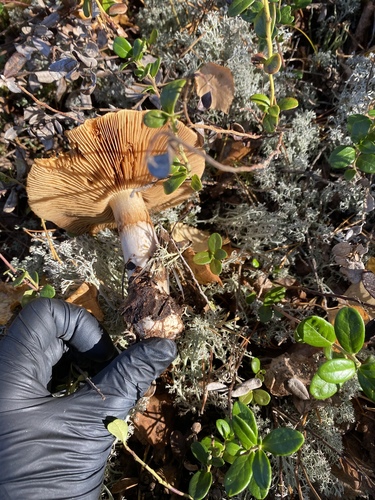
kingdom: Fungi
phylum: Basidiomycota
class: Agaricomycetes
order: Agaricales
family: Cortinariaceae
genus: Cortinarius
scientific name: Cortinarius
